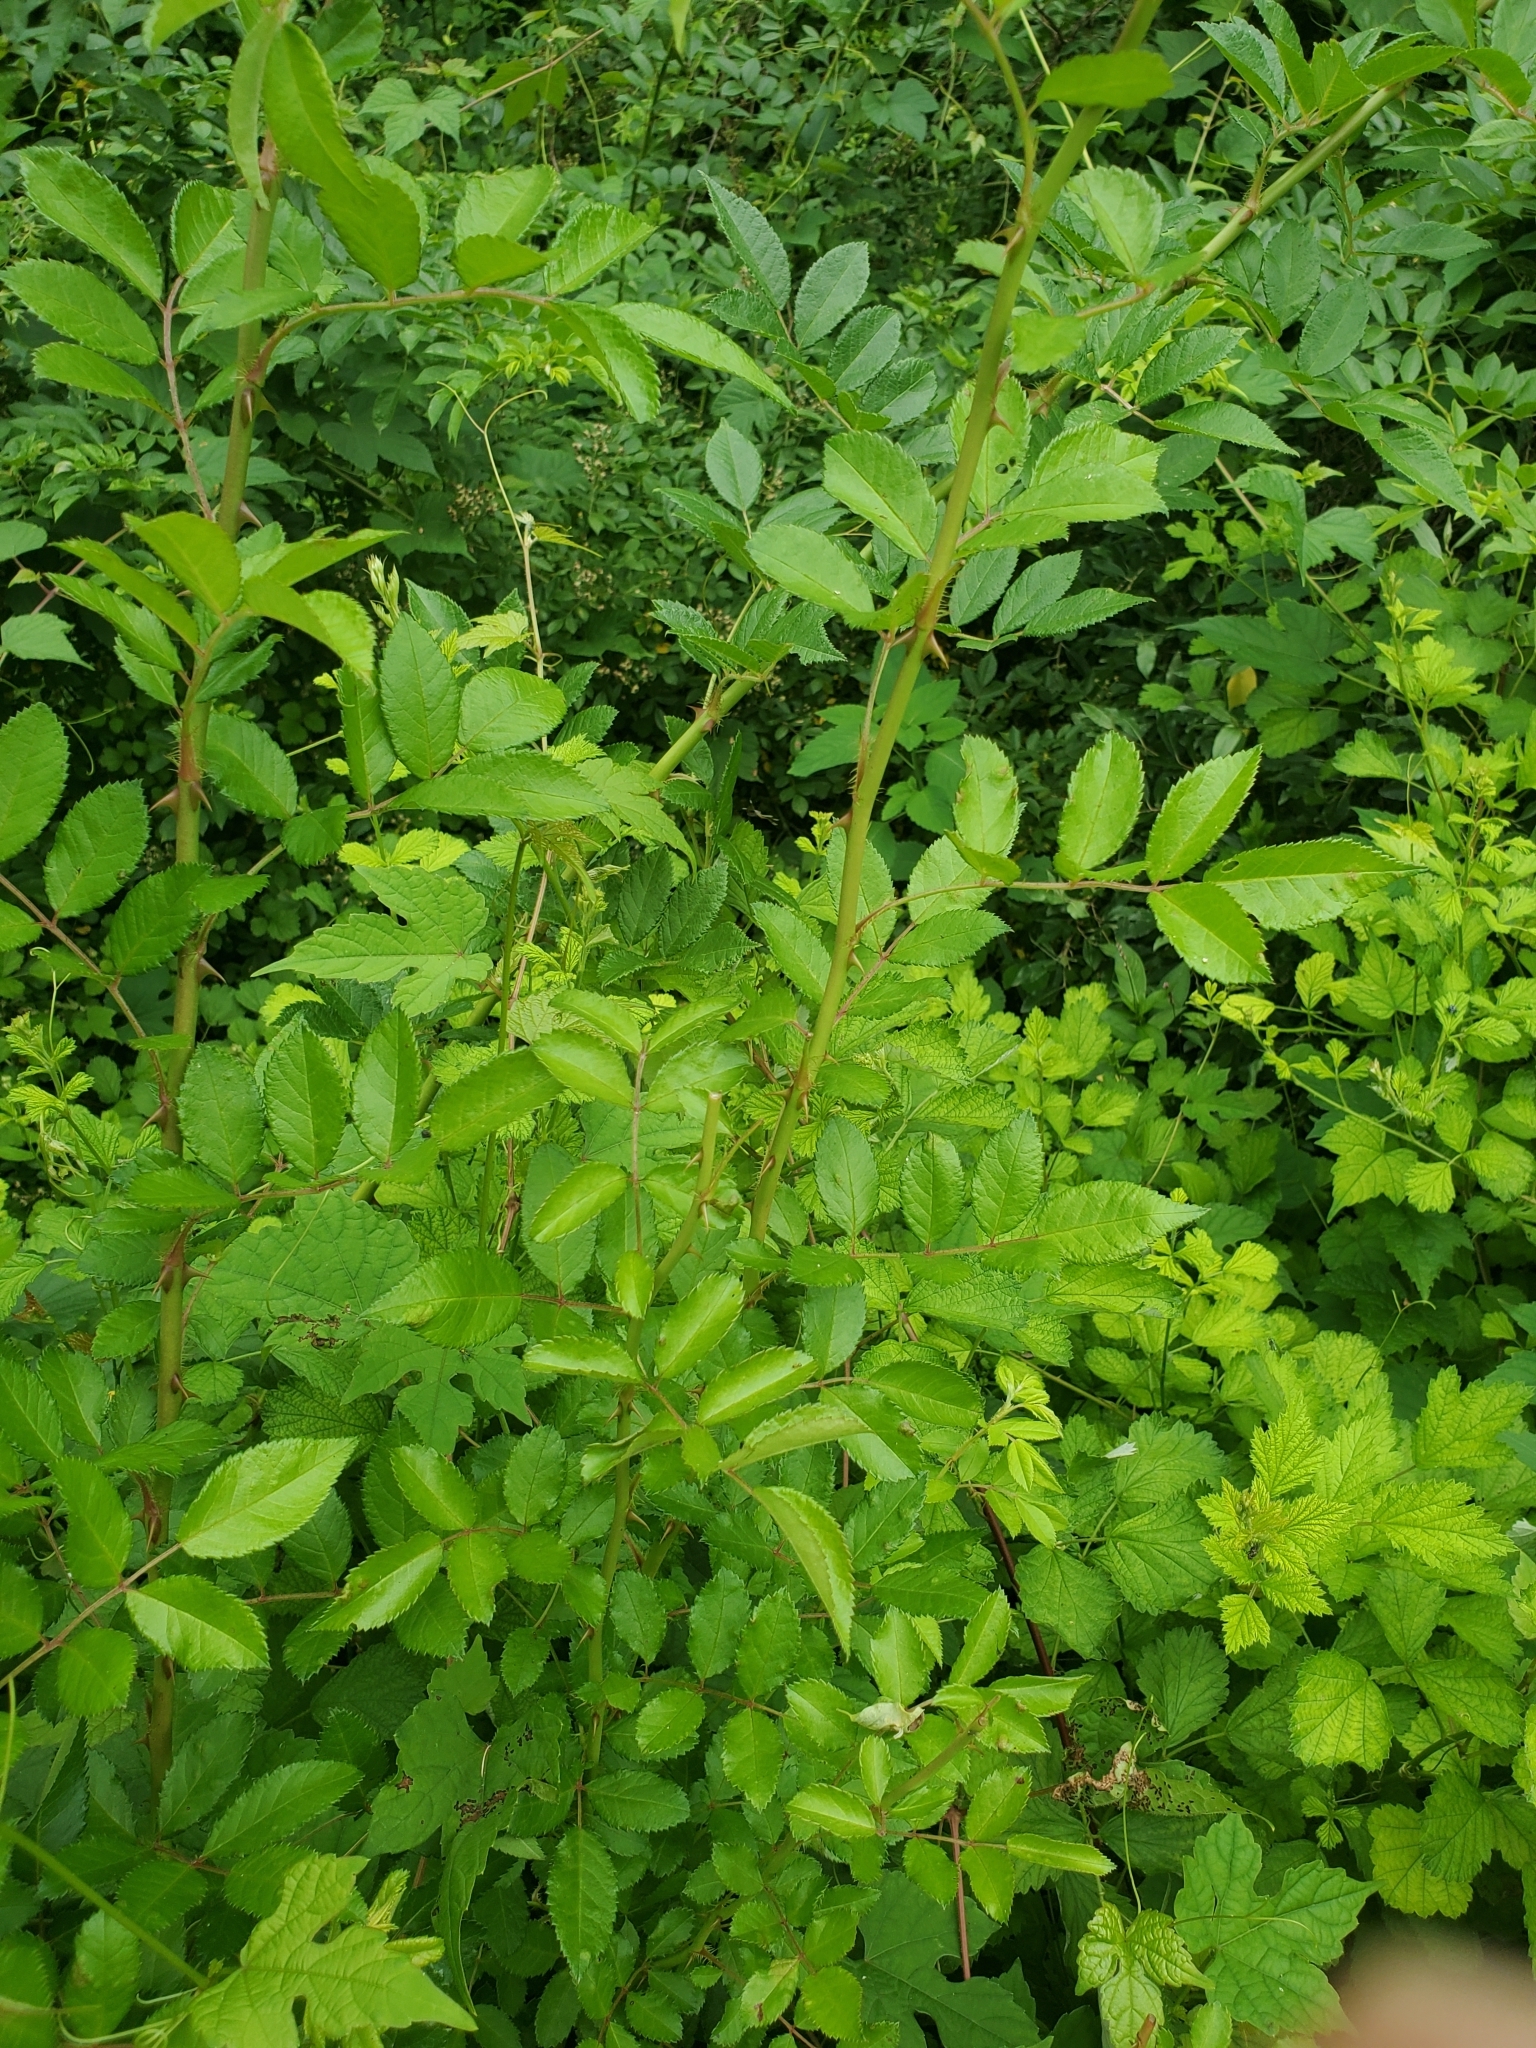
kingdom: Plantae
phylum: Tracheophyta
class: Magnoliopsida
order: Rosales
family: Rosaceae
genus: Rosa
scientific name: Rosa multiflora
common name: Multiflora rose
